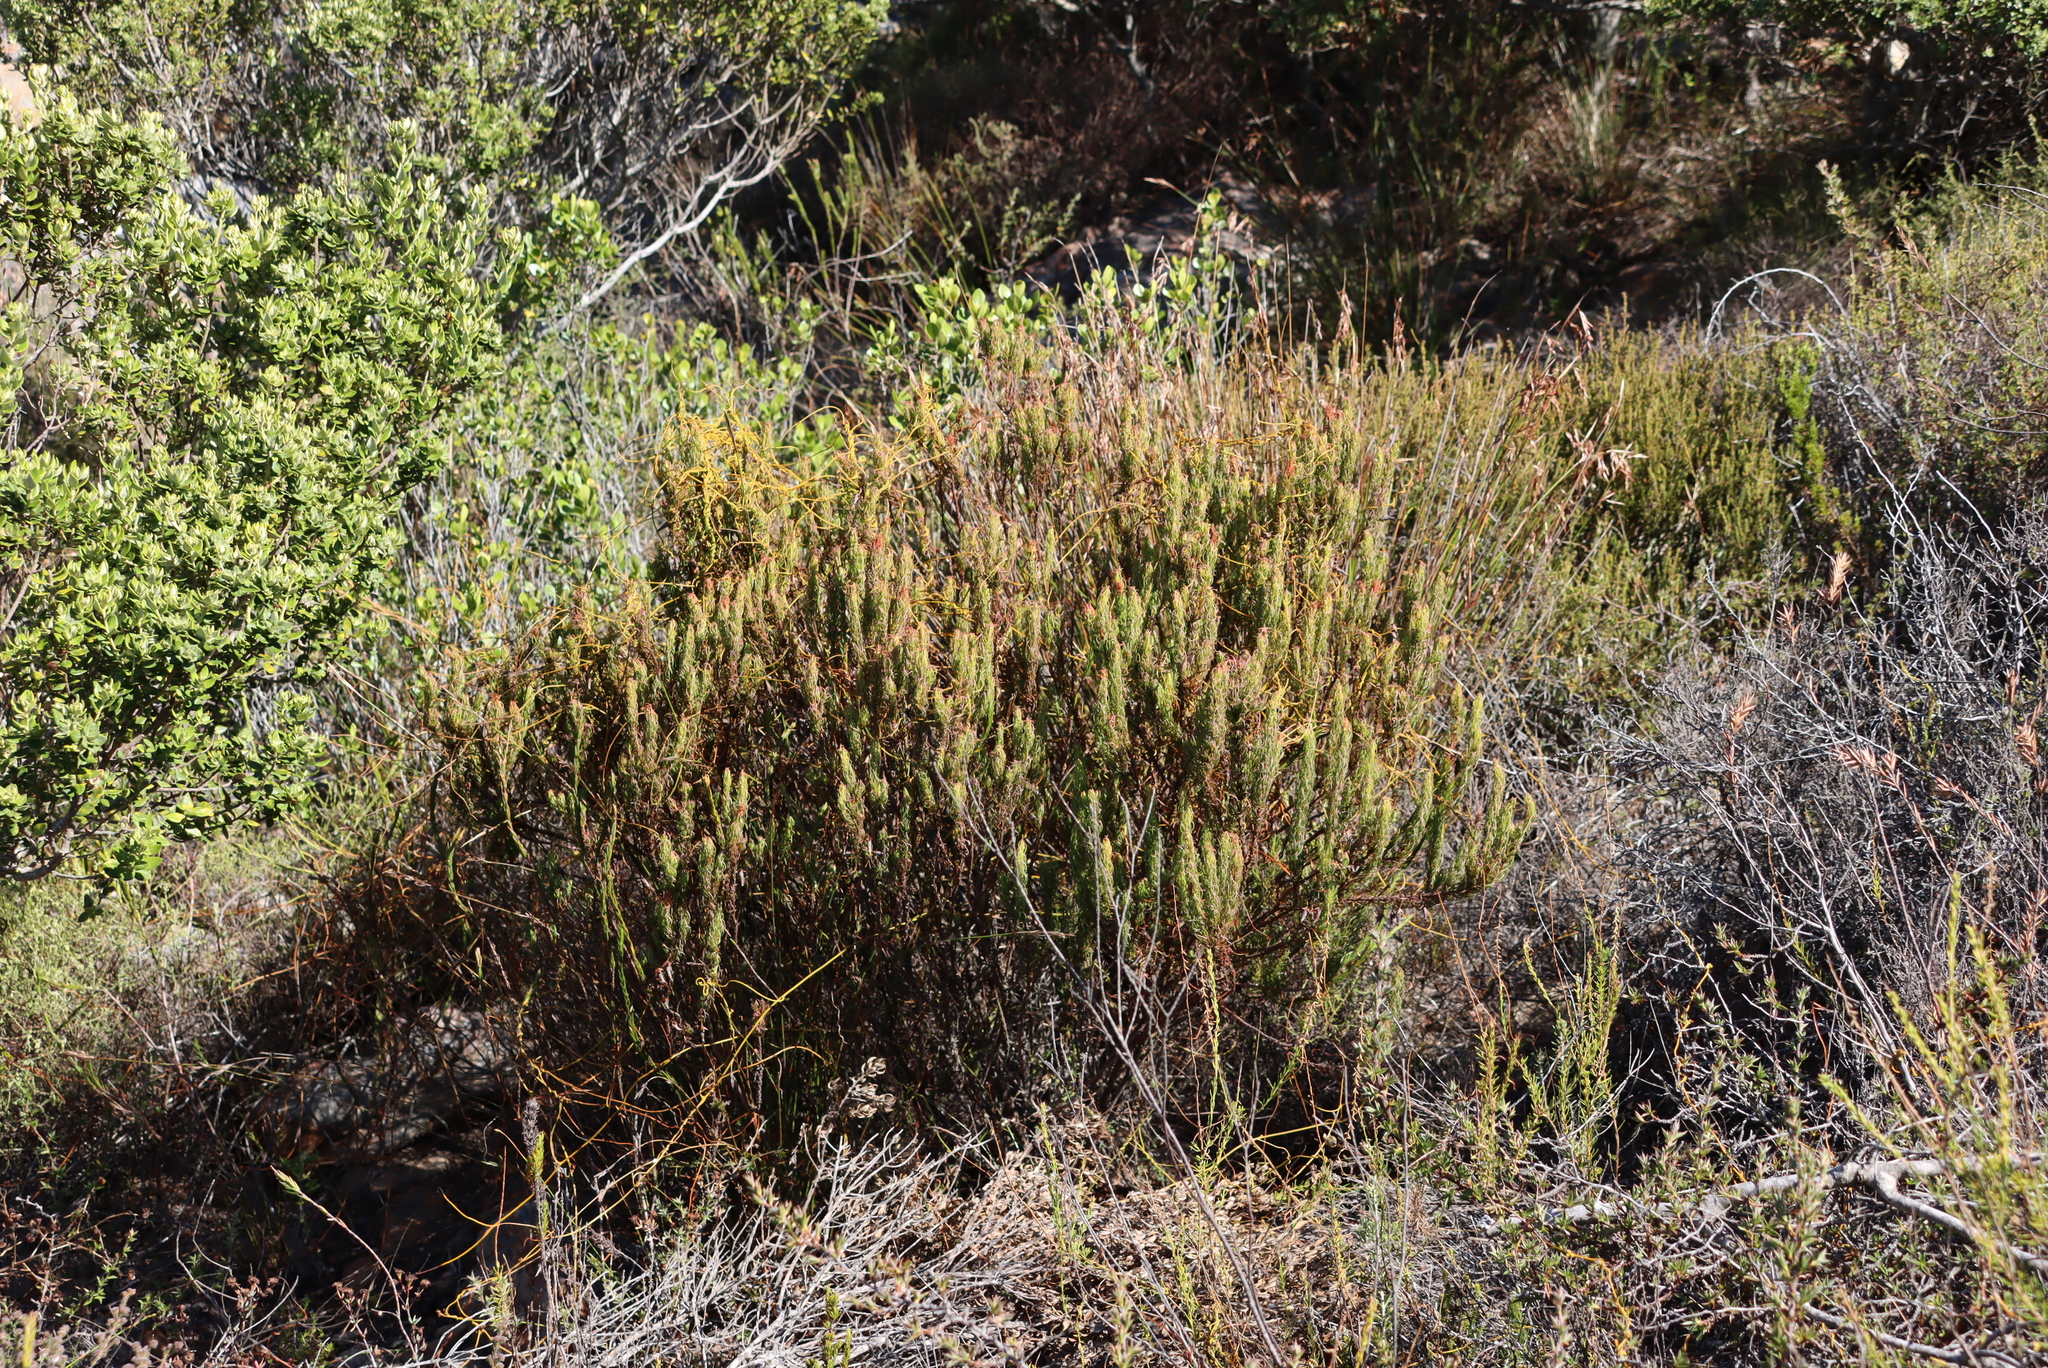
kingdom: Plantae
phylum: Tracheophyta
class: Magnoliopsida
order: Ericales
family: Ericaceae
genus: Erica
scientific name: Erica plukenetii
